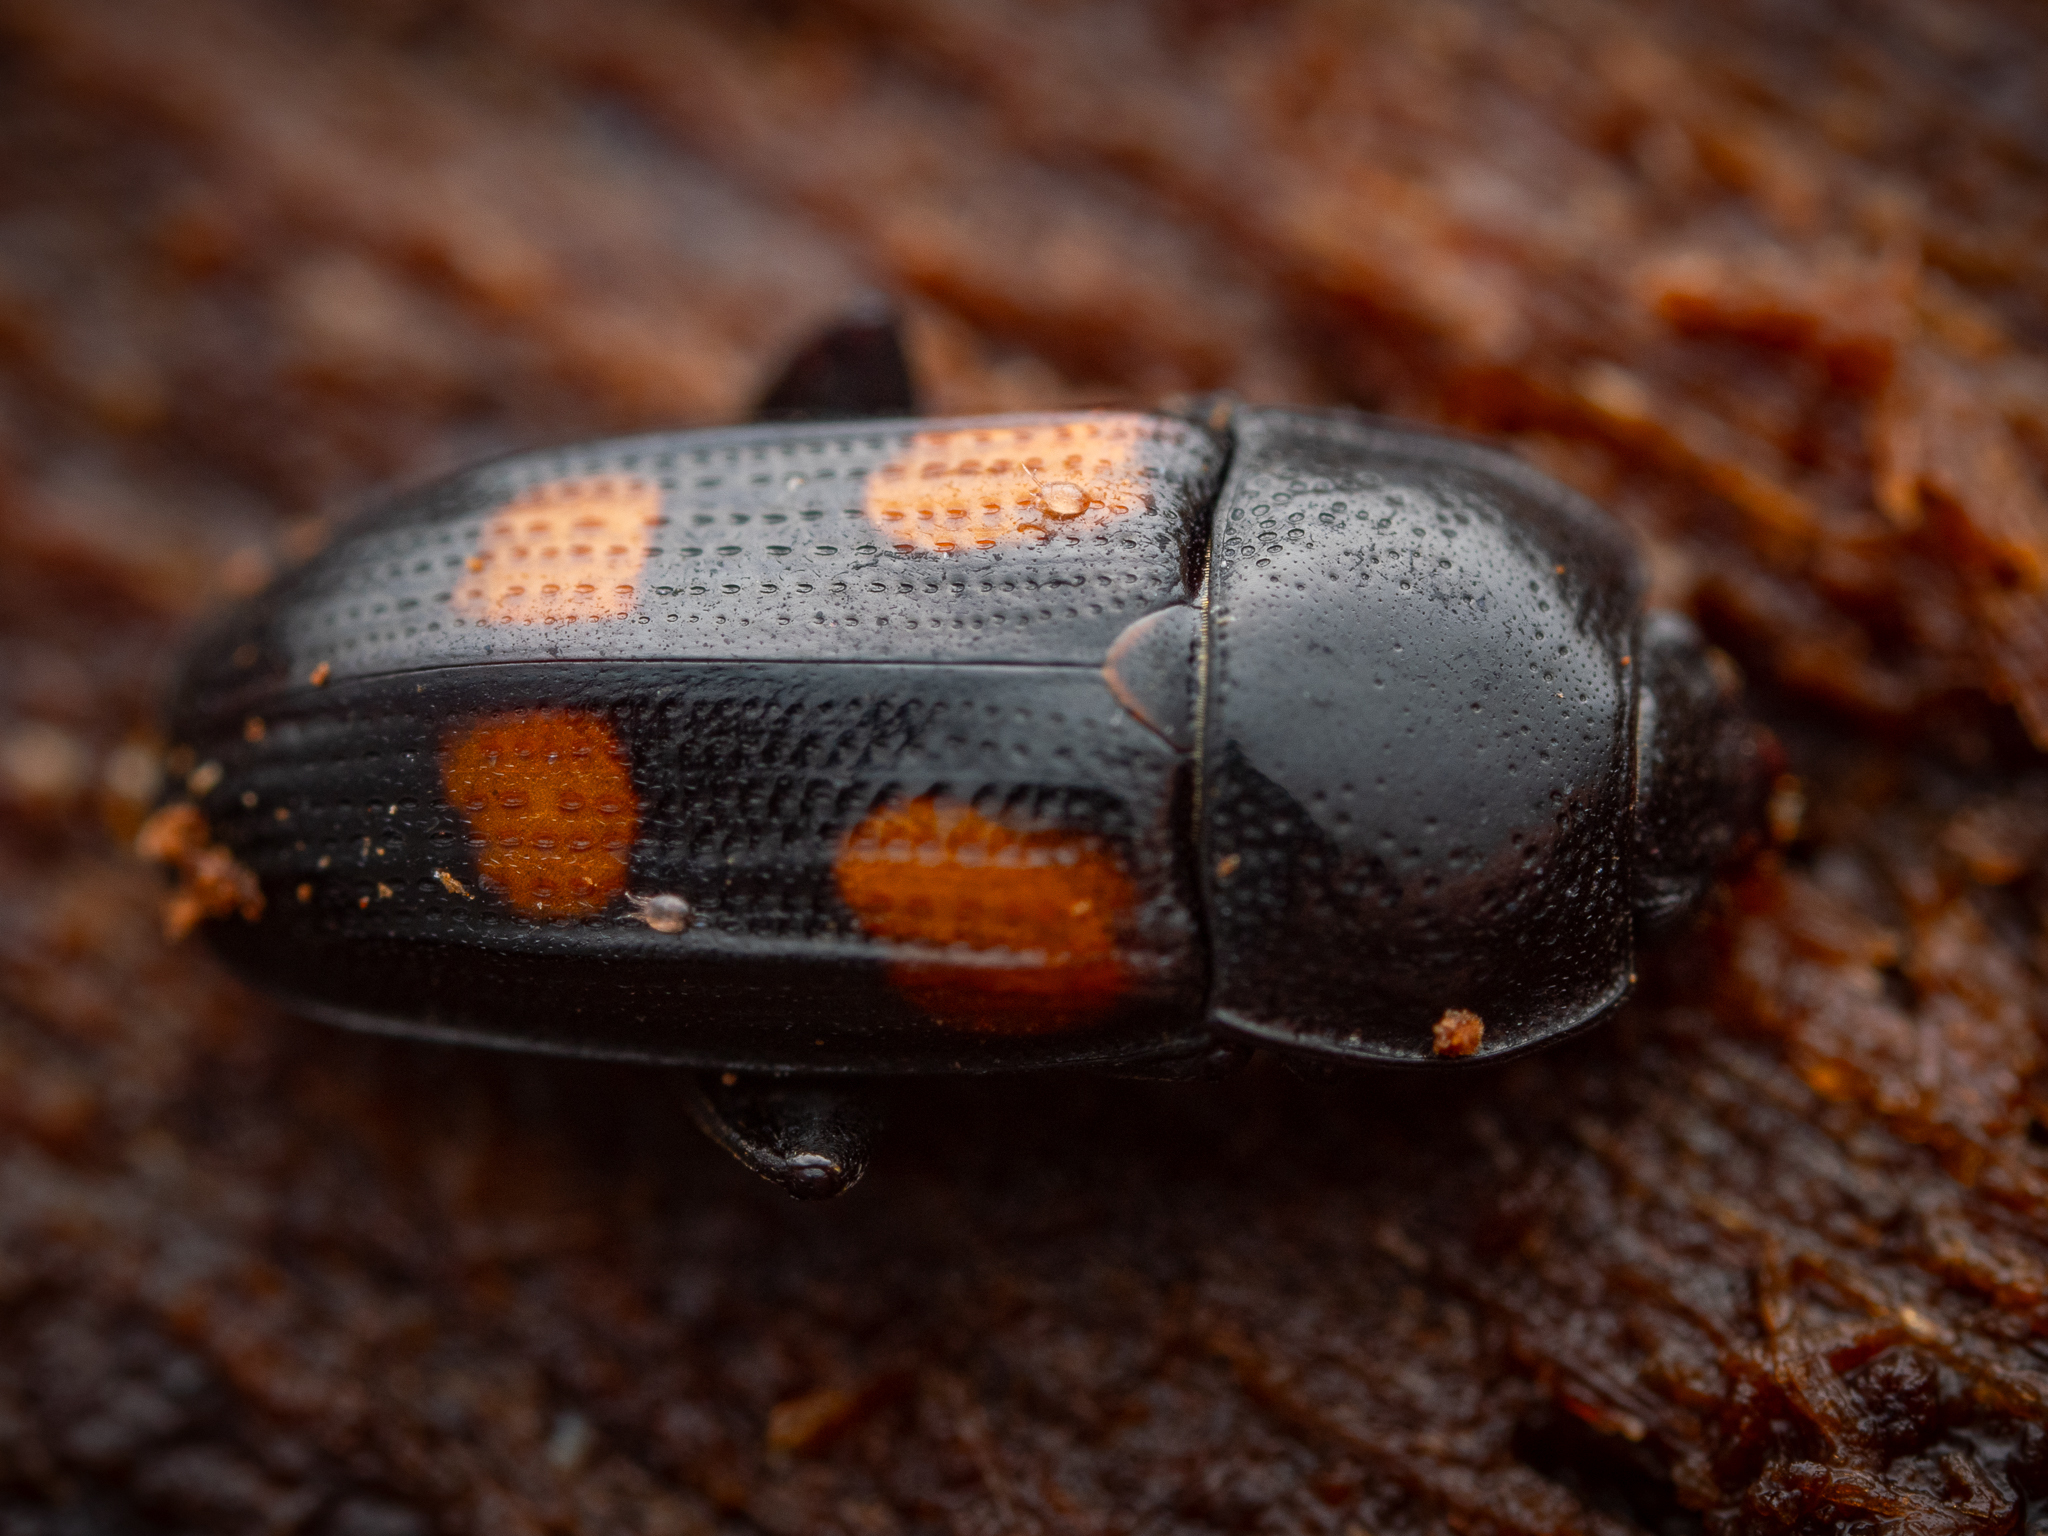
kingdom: Animalia
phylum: Arthropoda
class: Insecta
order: Coleoptera
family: Nitidulidae
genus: Ipidia
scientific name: Ipidia binotata
